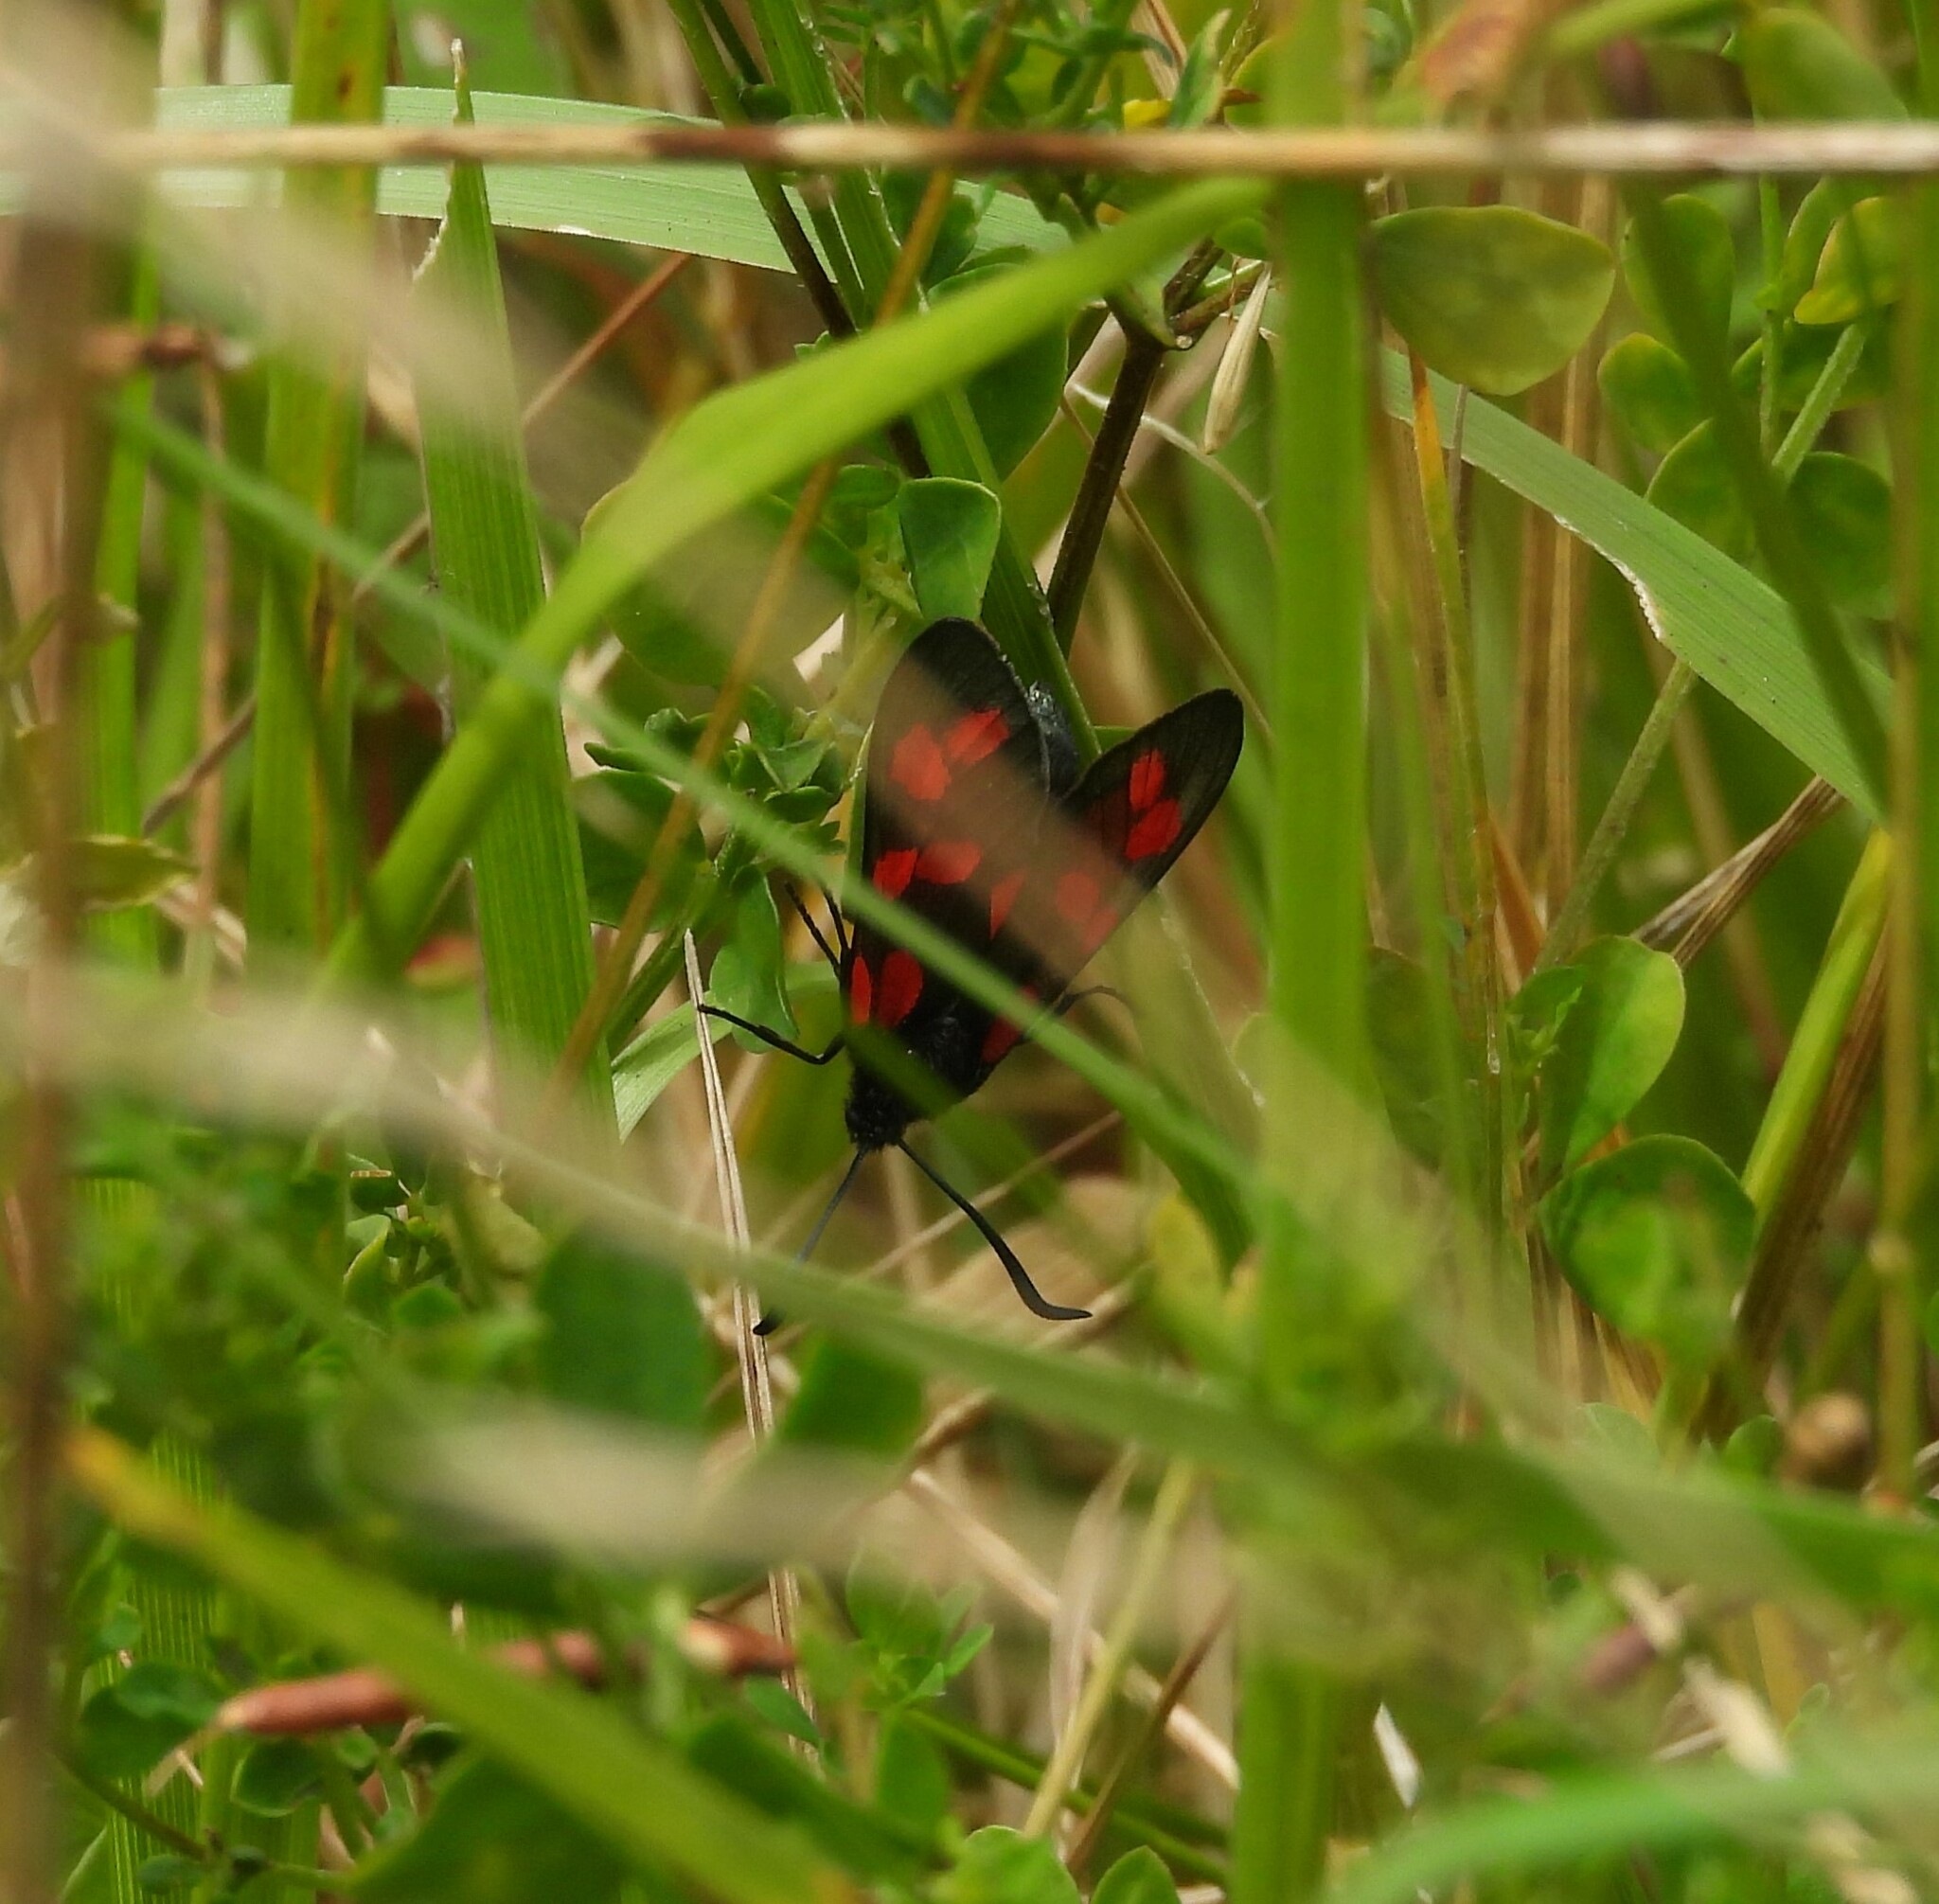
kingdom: Animalia
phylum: Arthropoda
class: Insecta
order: Lepidoptera
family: Zygaenidae
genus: Zygaena
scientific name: Zygaena filipendulae
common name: Six-spot burnet
